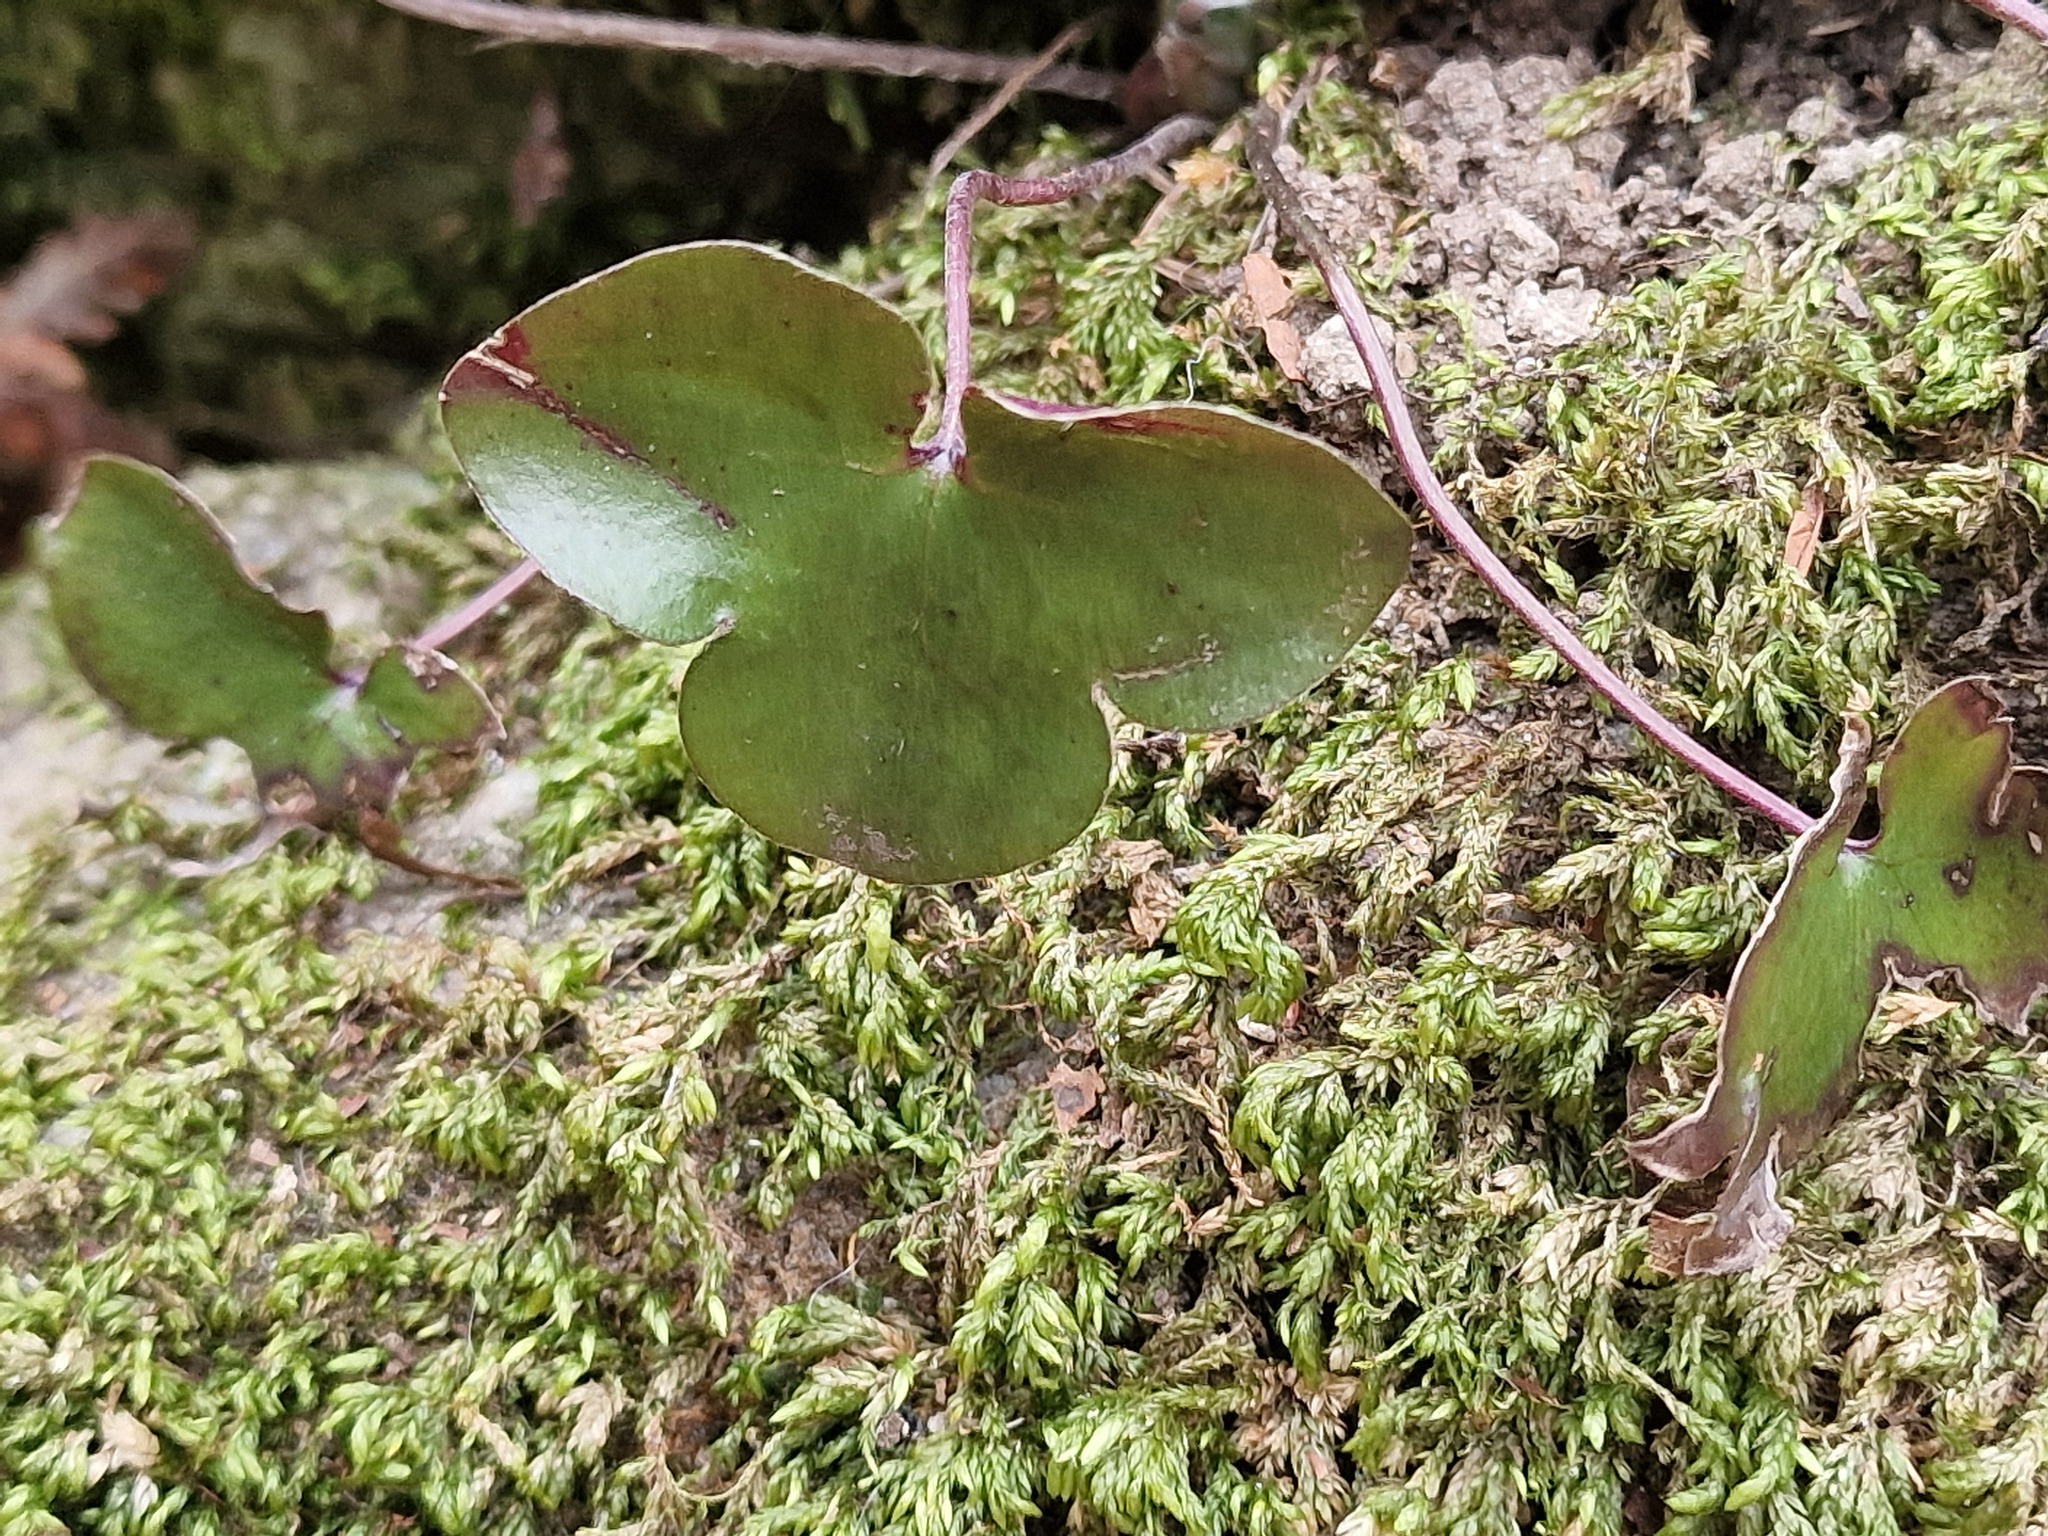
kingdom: Plantae
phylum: Tracheophyta
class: Magnoliopsida
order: Ranunculales
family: Ranunculaceae
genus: Hepatica
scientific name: Hepatica nobilis
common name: Liverleaf
